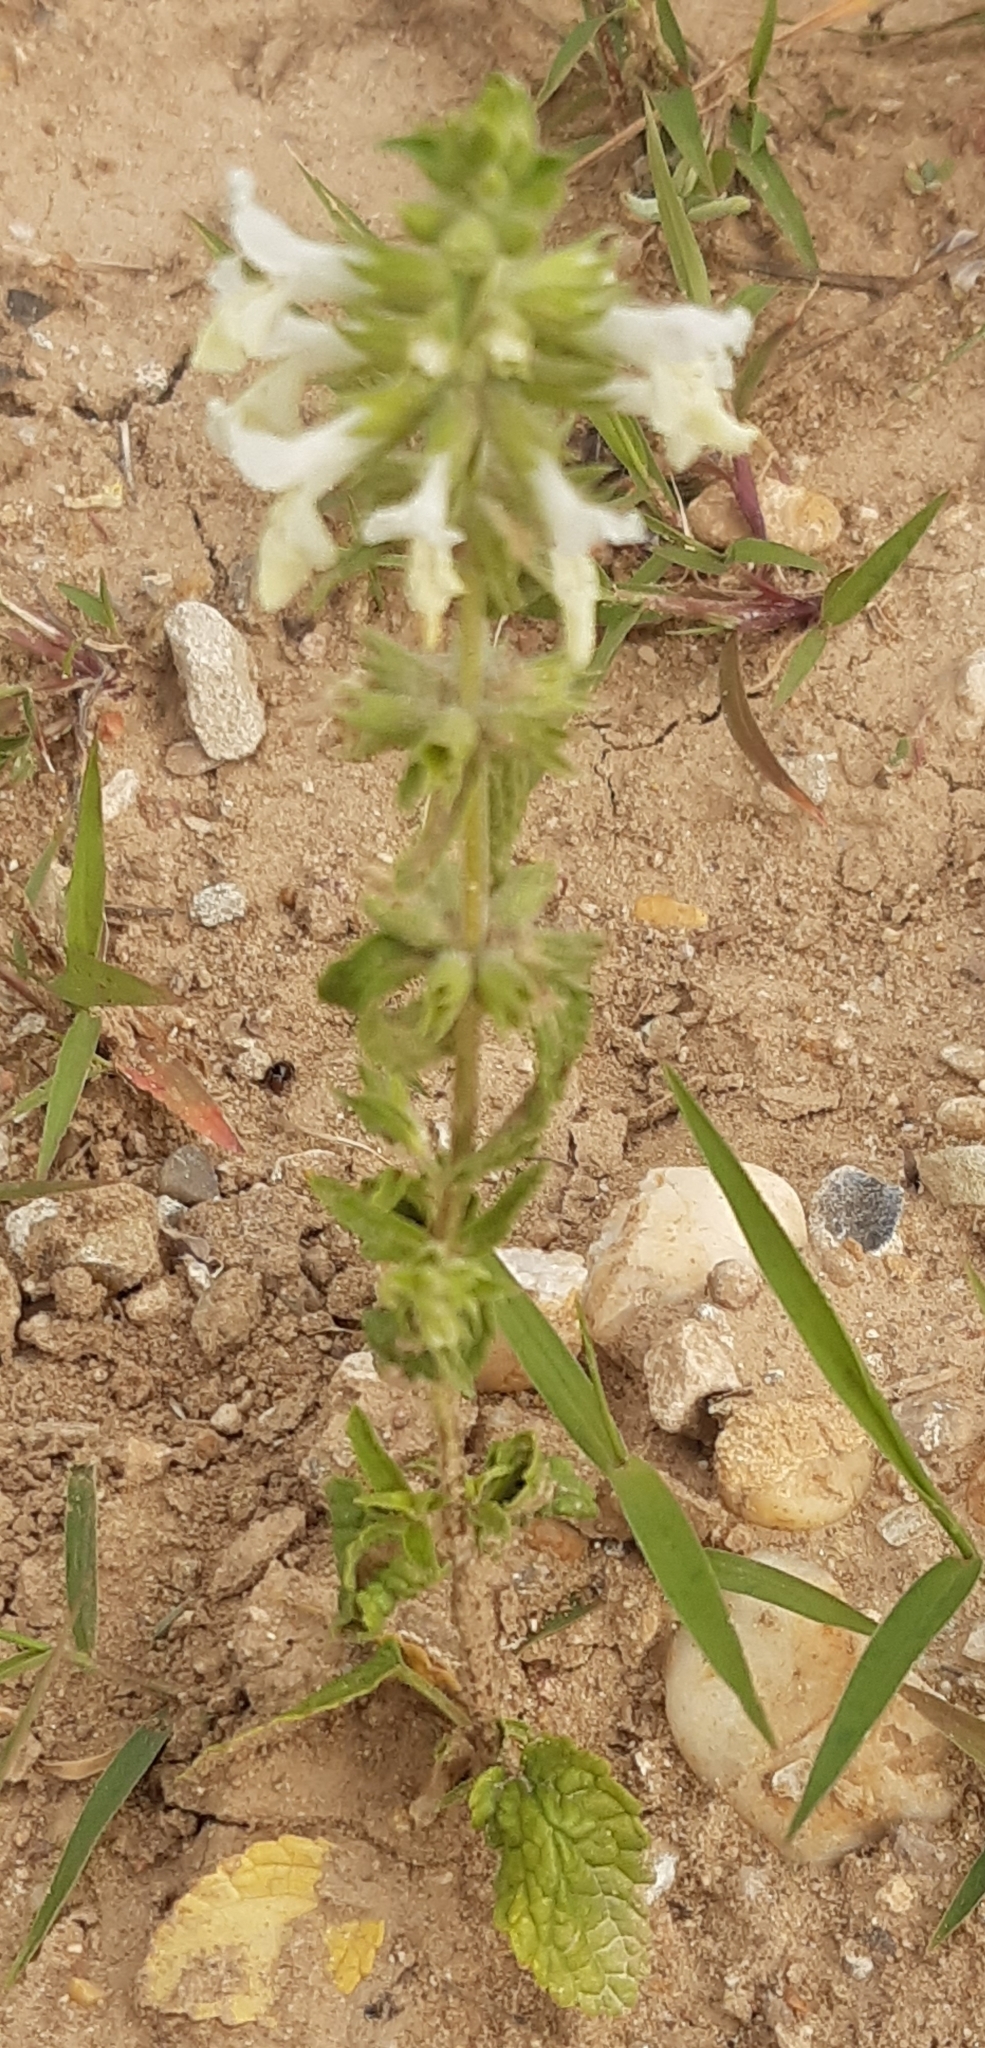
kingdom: Plantae
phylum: Tracheophyta
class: Magnoliopsida
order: Lamiales
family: Lamiaceae
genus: Stachys
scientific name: Stachys annua
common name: Annual yellow-woundwort
